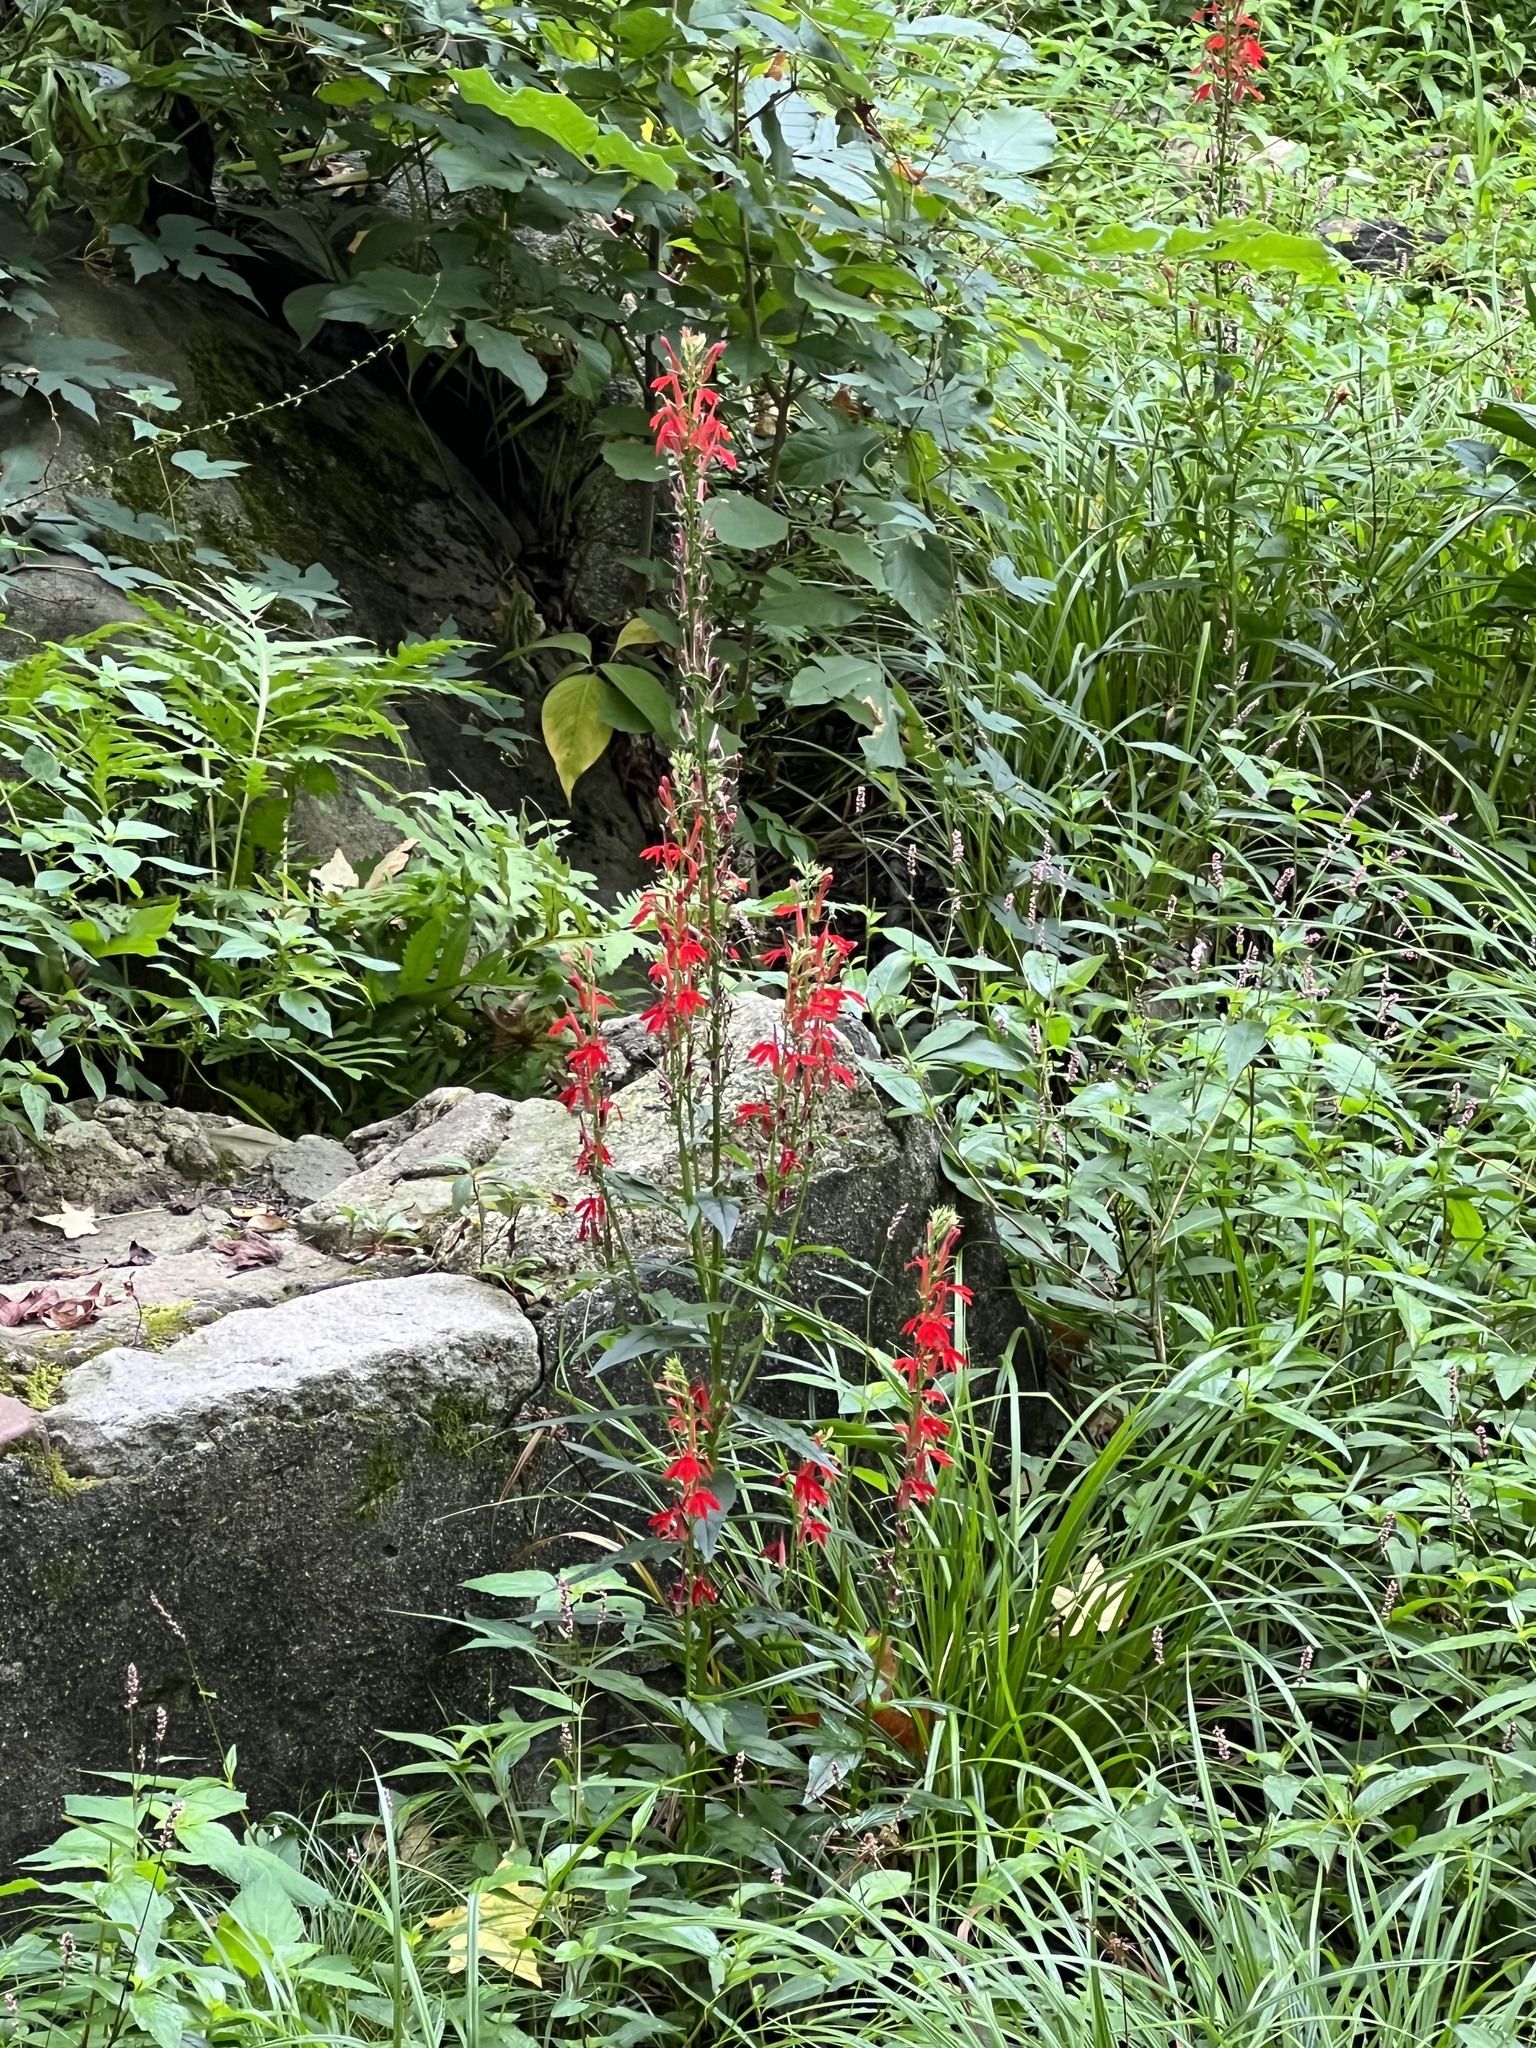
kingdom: Plantae
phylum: Tracheophyta
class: Magnoliopsida
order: Asterales
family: Campanulaceae
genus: Lobelia
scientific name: Lobelia cardinalis
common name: Cardinal flower
